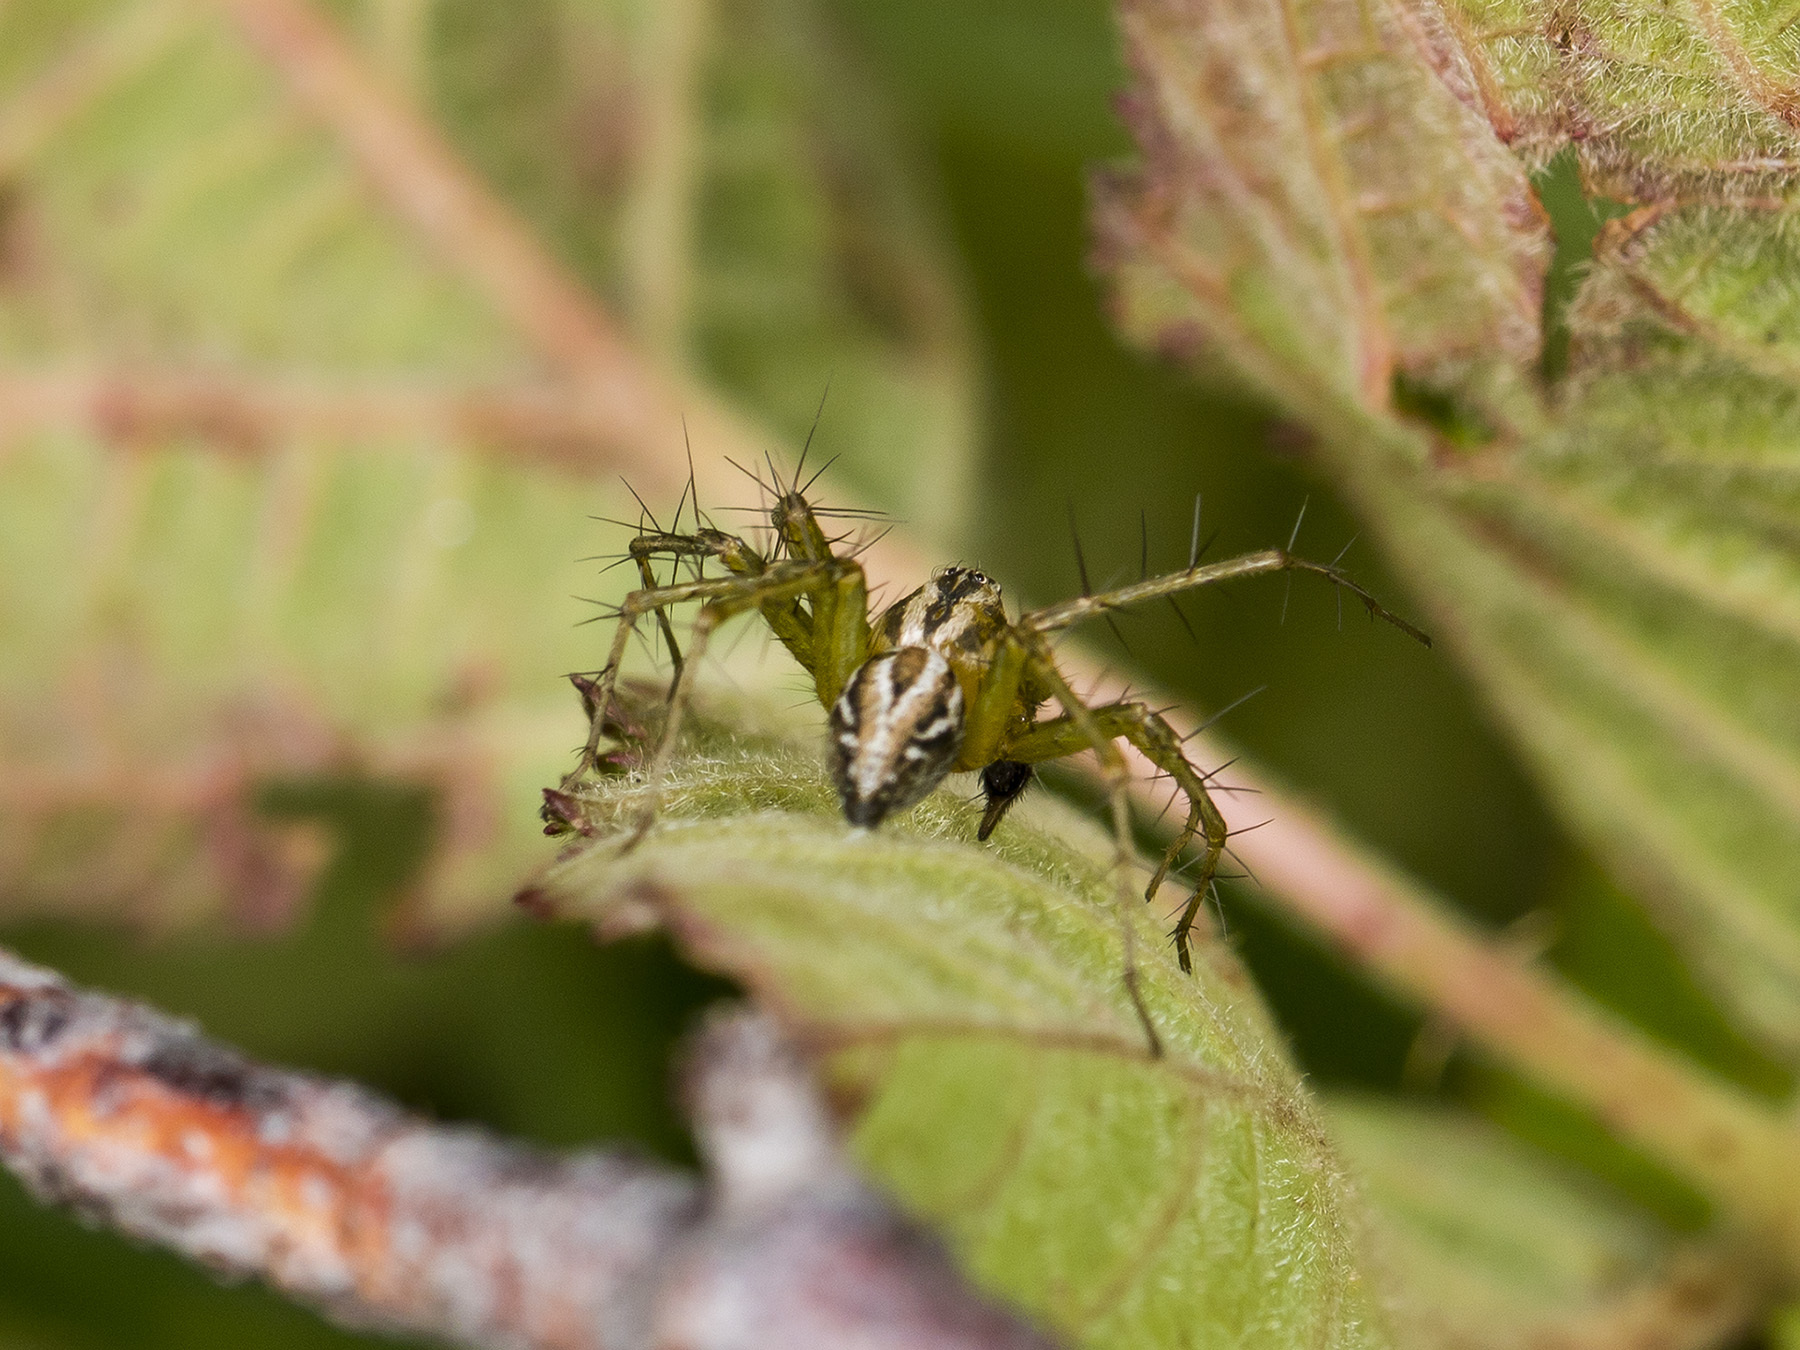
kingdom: Animalia
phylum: Arthropoda
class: Arachnida
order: Araneae
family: Oxyopidae
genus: Oxyopes
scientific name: Oxyopes lineatus
